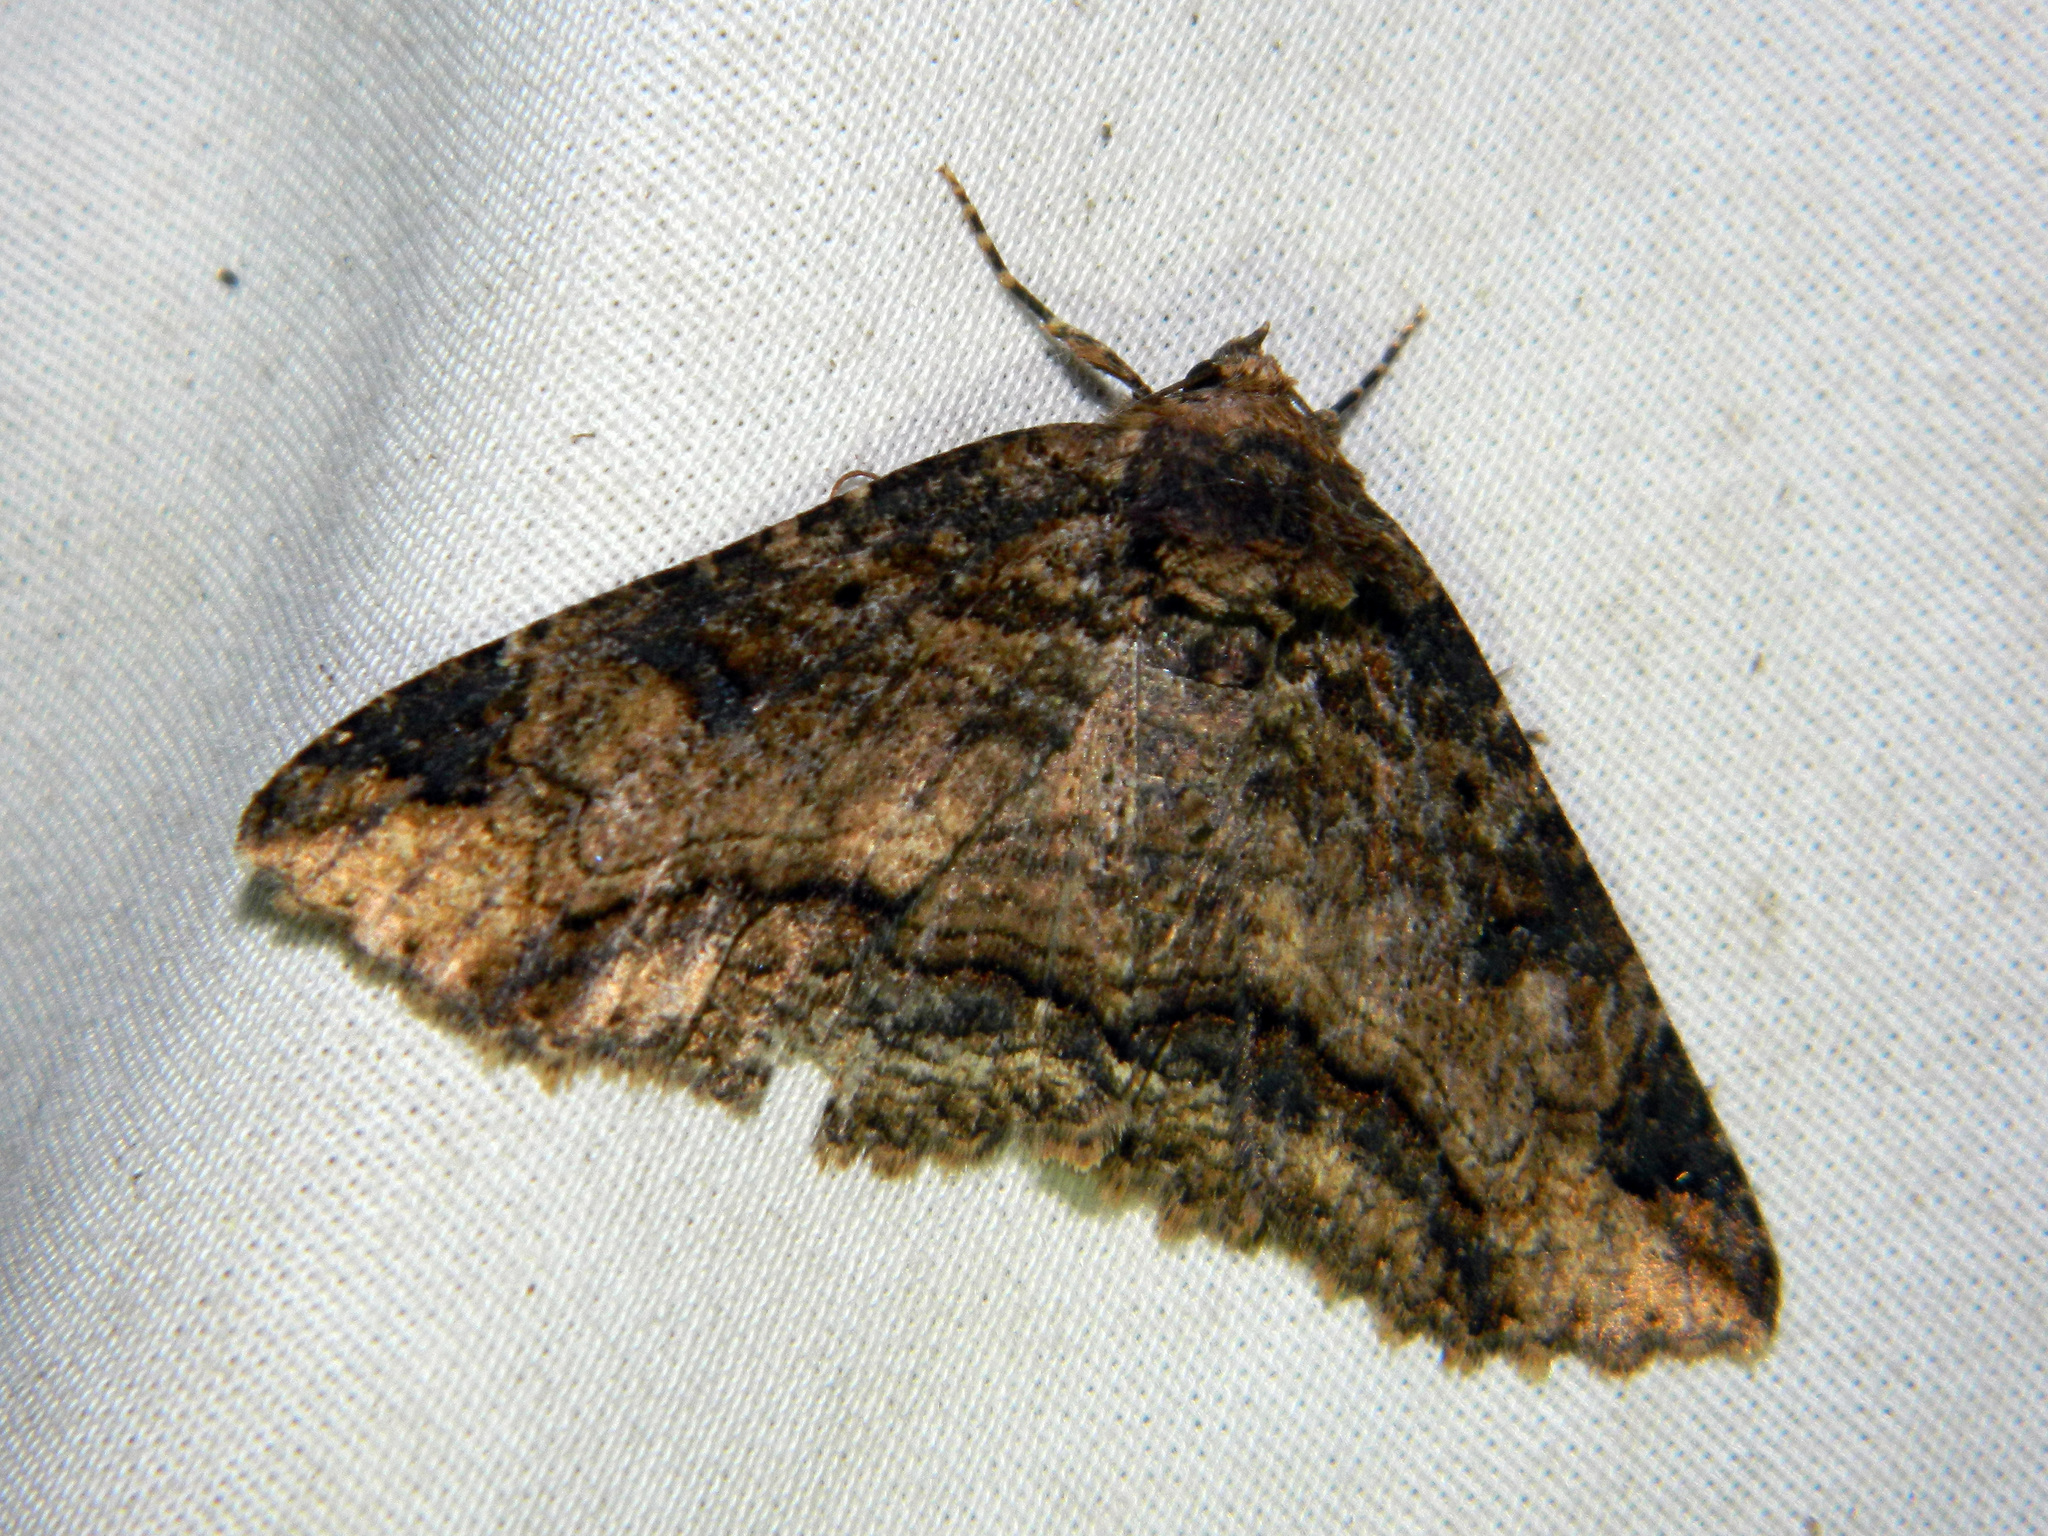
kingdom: Animalia
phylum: Arthropoda
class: Insecta
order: Lepidoptera
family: Erebidae
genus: Zale
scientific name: Zale minerea
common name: Colorful zale moth
